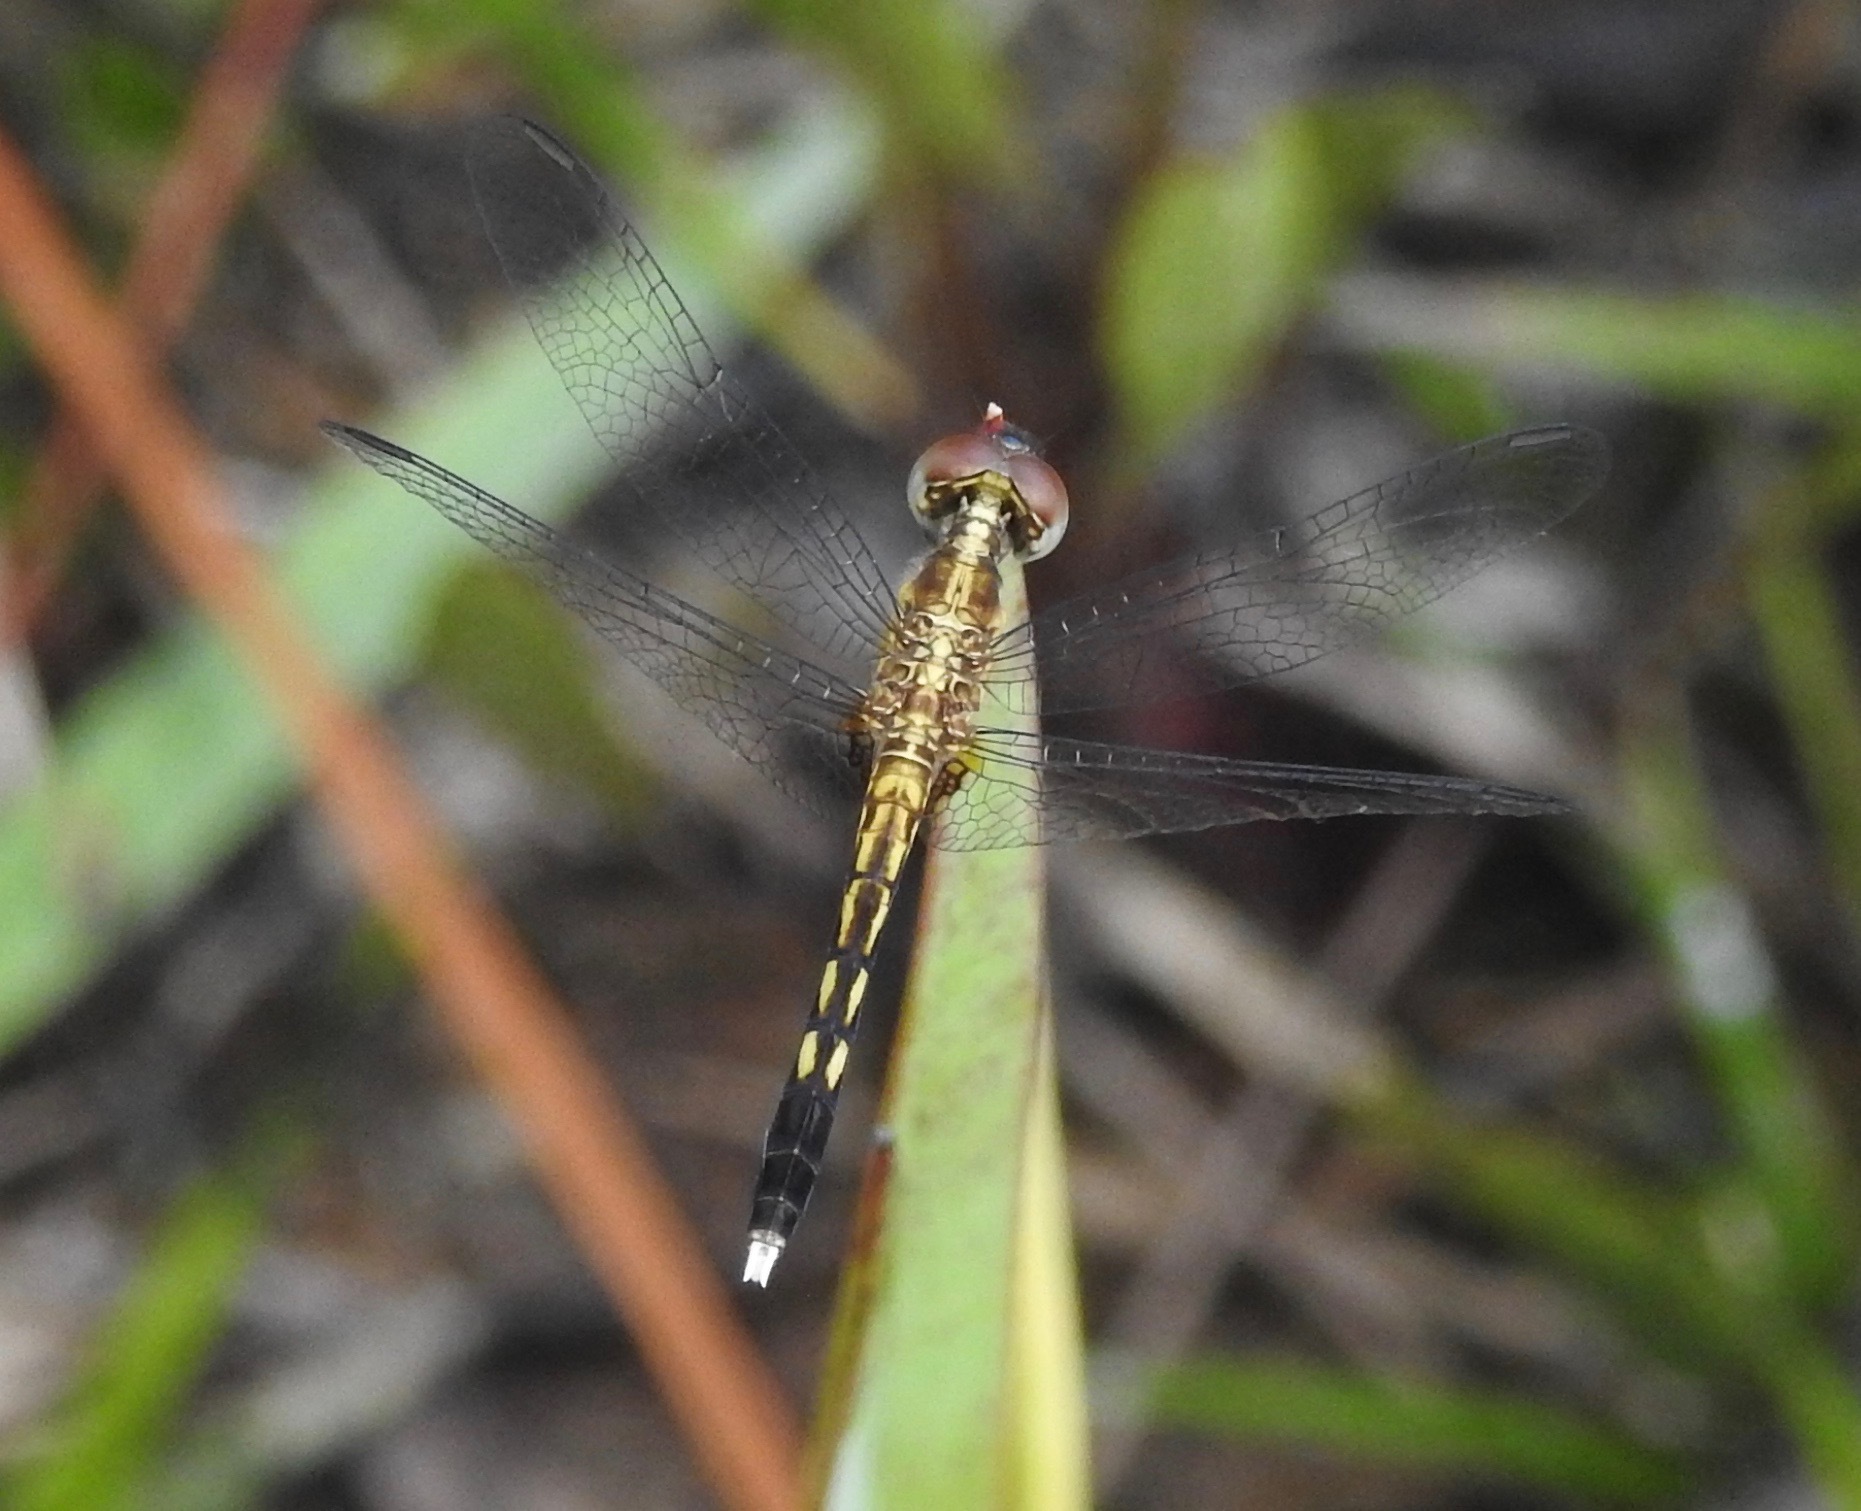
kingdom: Animalia
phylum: Arthropoda
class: Insecta
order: Odonata
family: Libellulidae
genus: Erythrodiplax
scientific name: Erythrodiplax minuscula
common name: Little blue dragonlet
